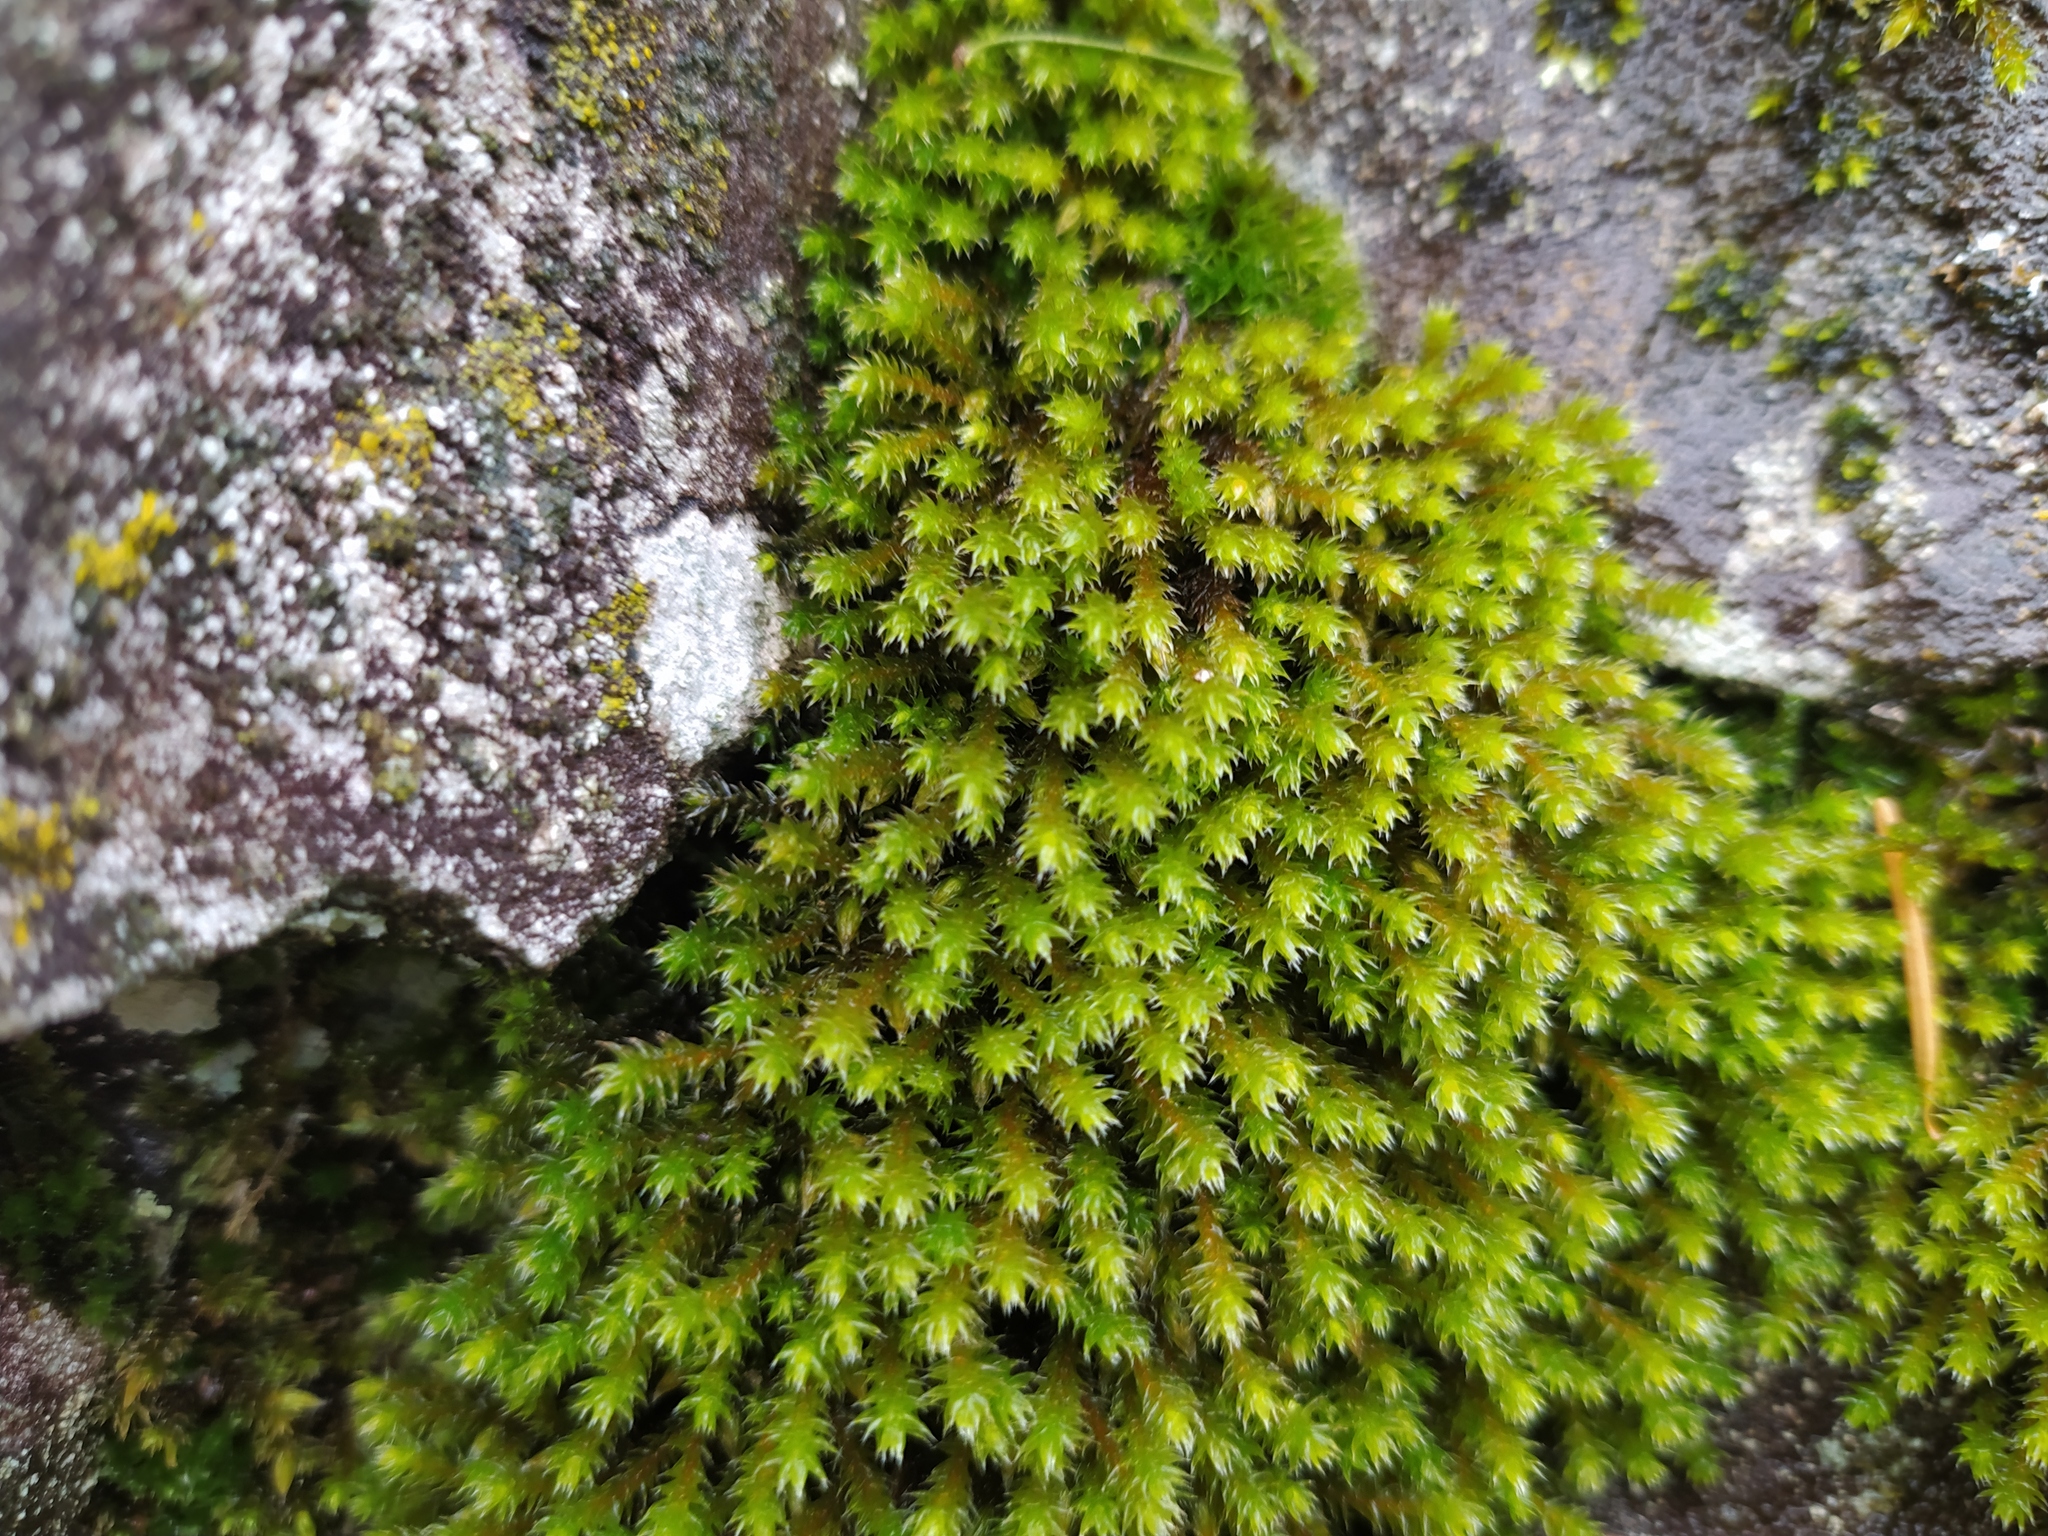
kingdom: Plantae
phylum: Bryophyta
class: Bryopsida
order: Hedwigiales
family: Hedwigiaceae
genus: Hedwigia
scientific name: Hedwigia ciliata
